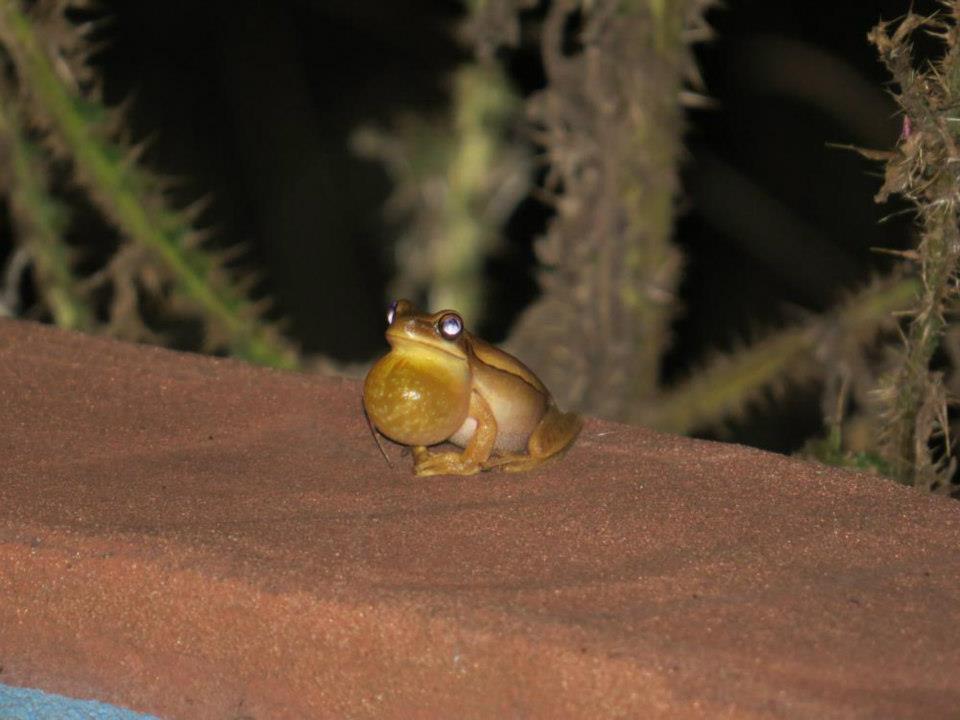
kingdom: Animalia
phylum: Chordata
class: Amphibia
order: Anura
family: Hylidae
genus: Boana
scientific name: Boana pulchella
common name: Montevideo treefrog
